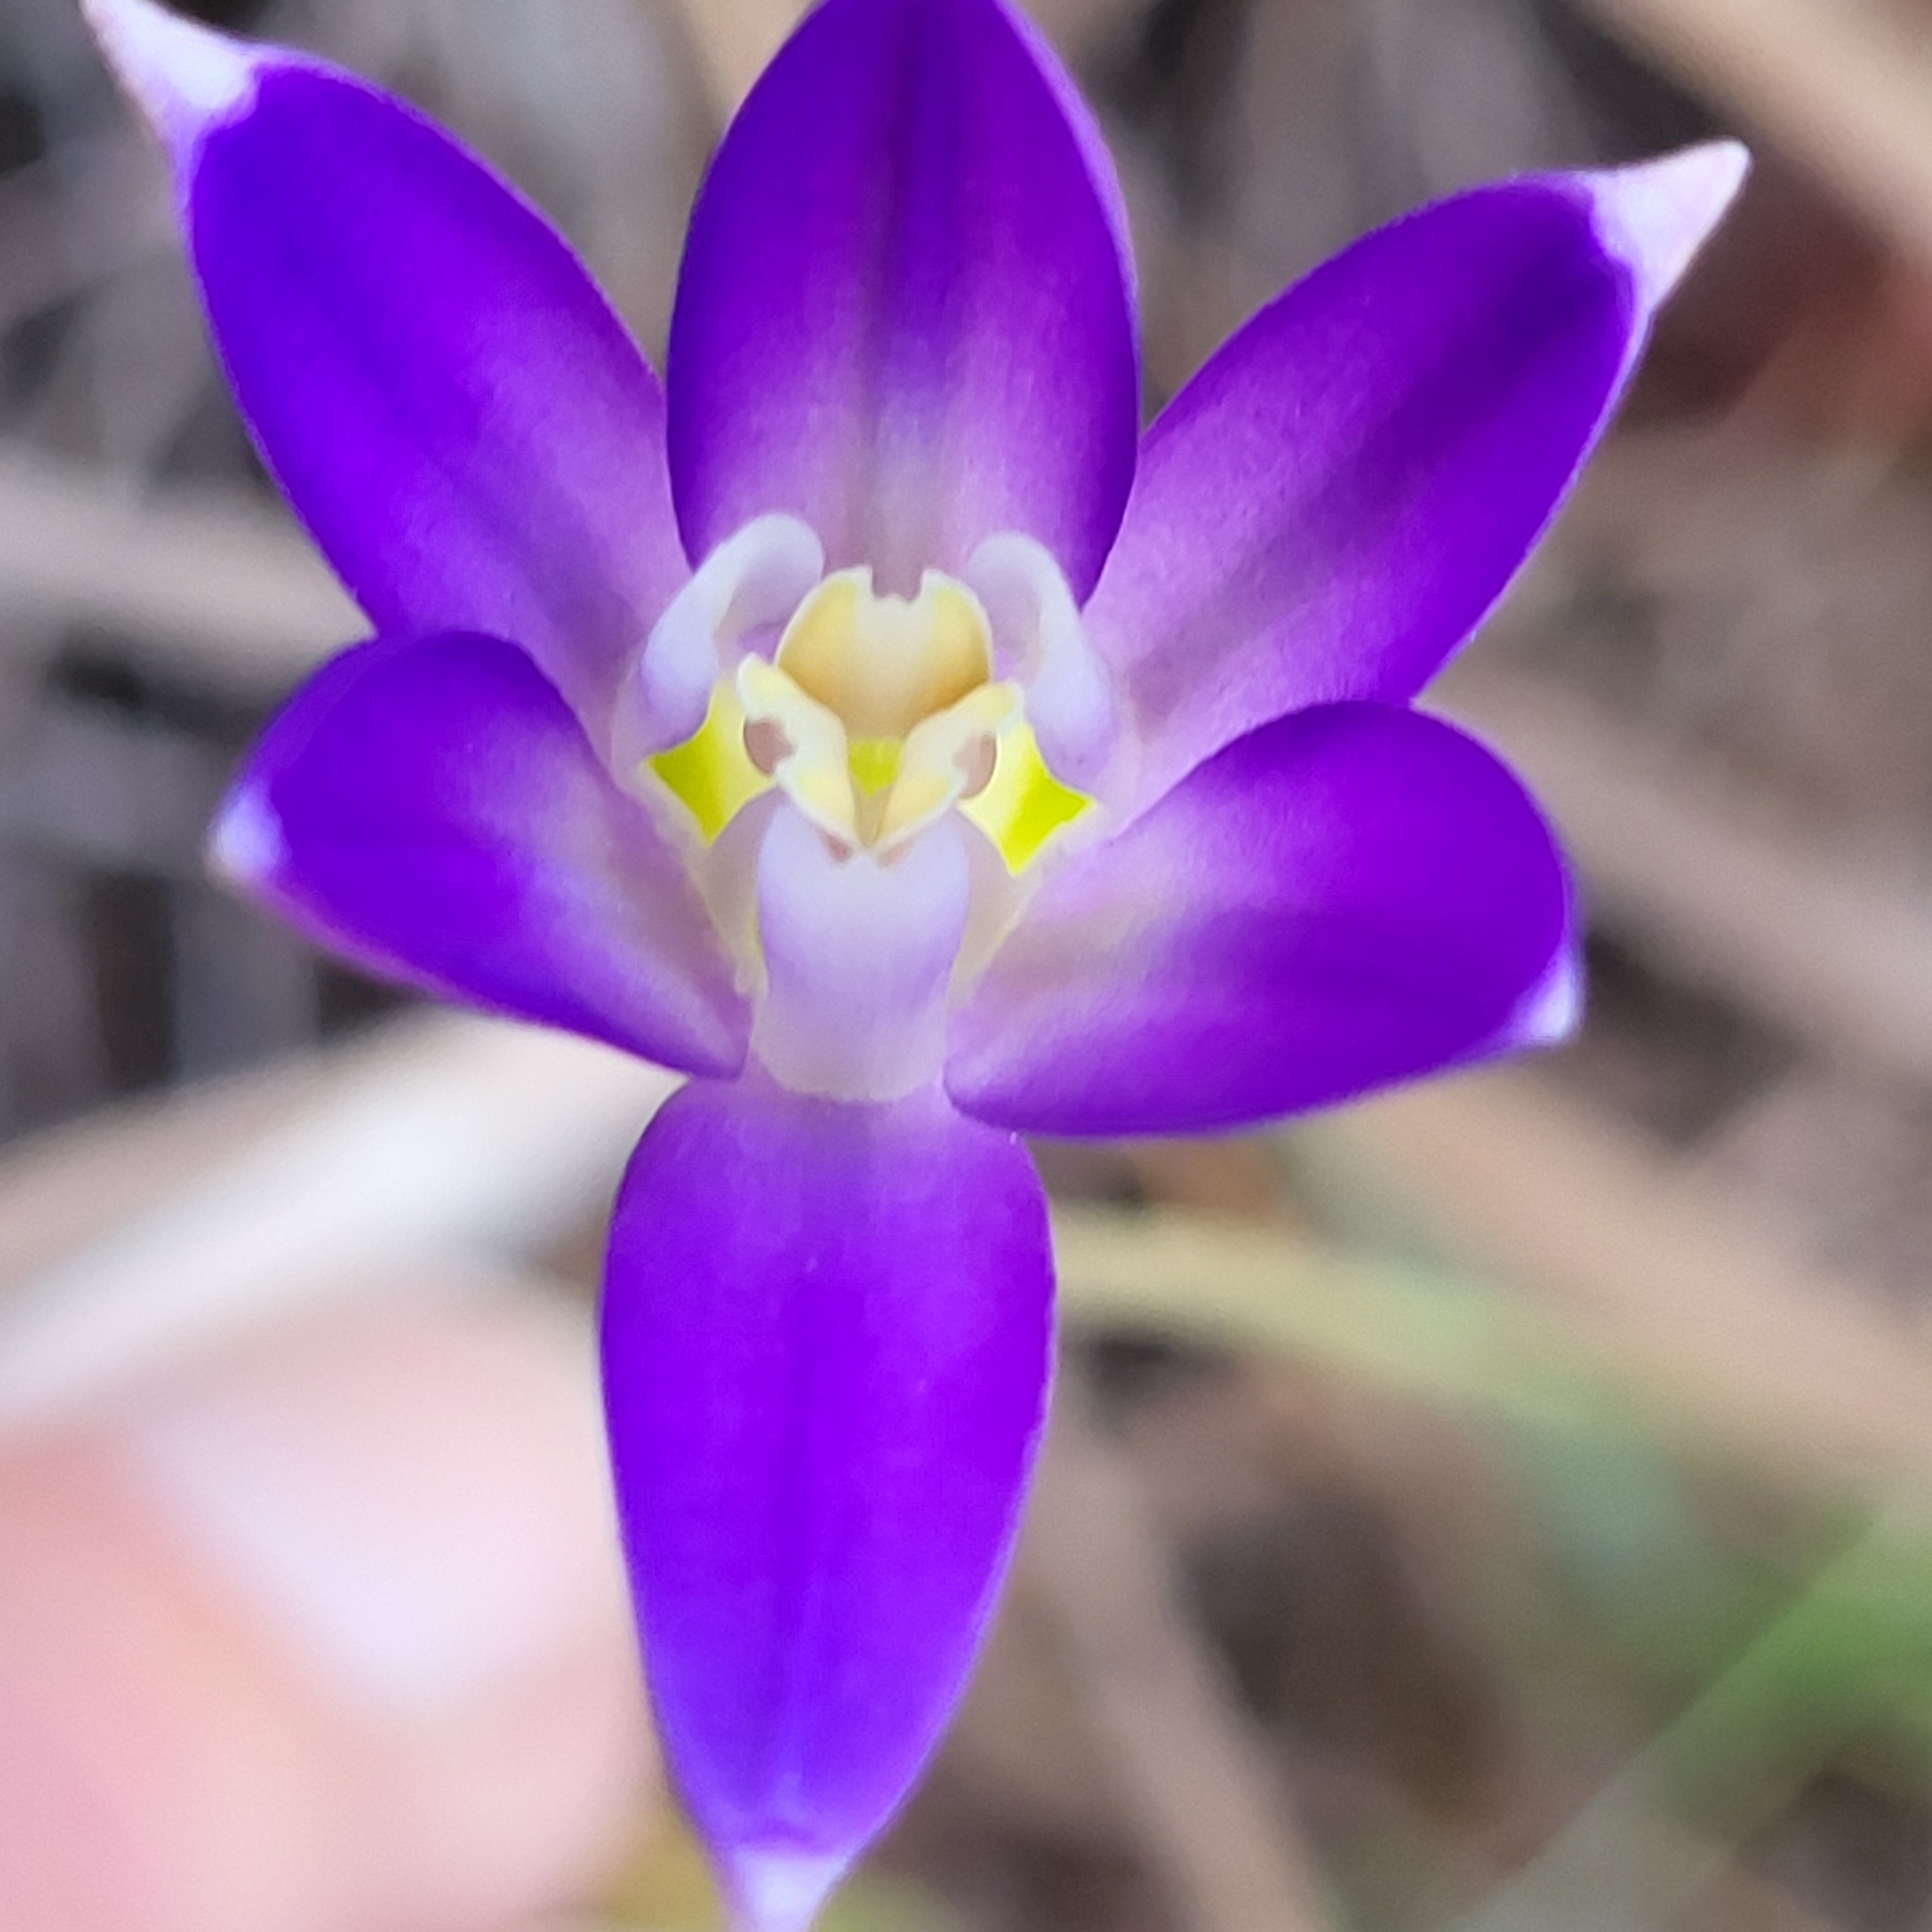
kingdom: Plantae
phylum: Tracheophyta
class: Liliopsida
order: Asparagales
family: Asparagaceae
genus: Brodiaea
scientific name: Brodiaea terrestris
